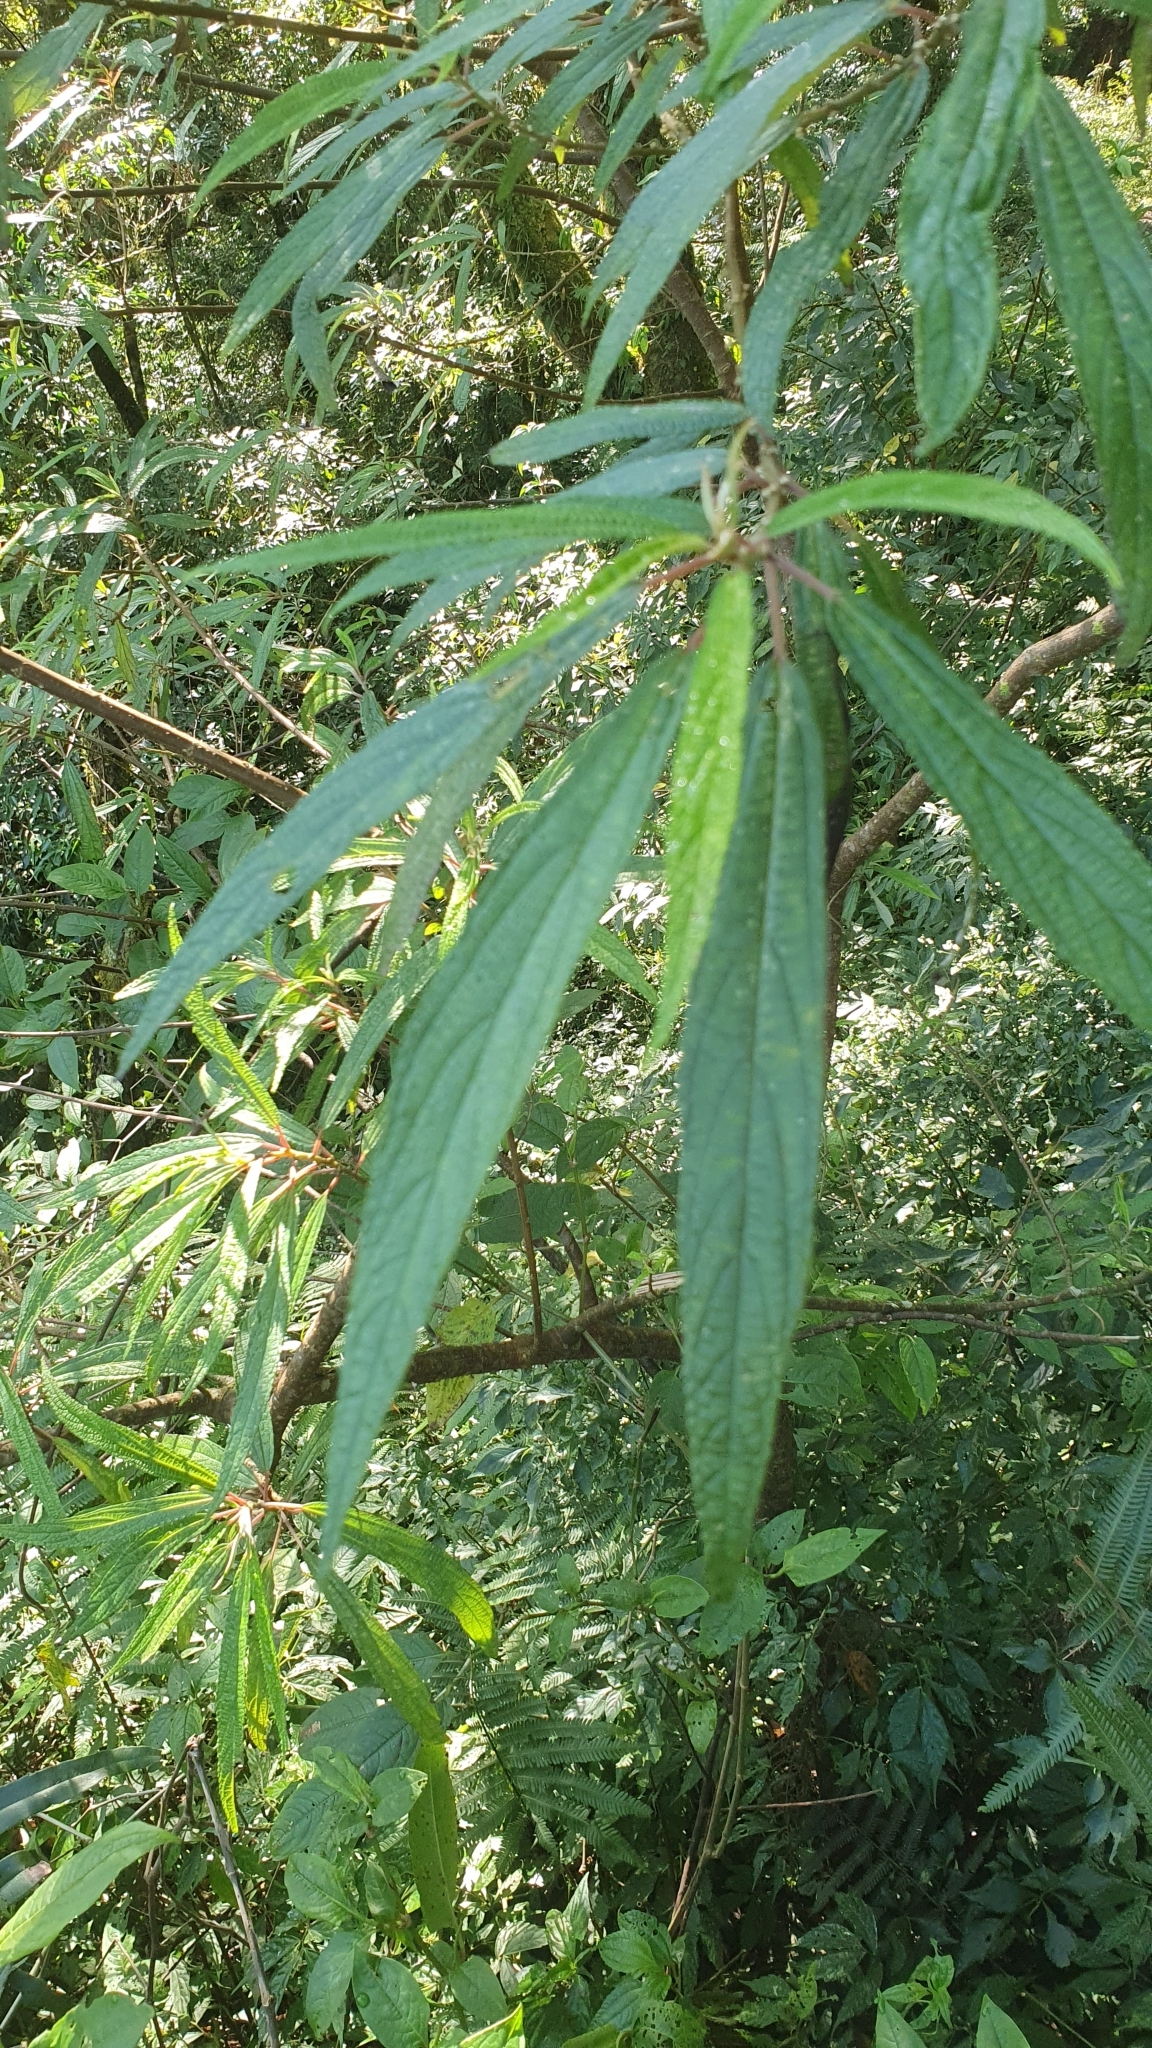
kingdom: Plantae
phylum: Tracheophyta
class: Magnoliopsida
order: Rosales
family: Urticaceae
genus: Debregeasia
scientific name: Debregeasia orientalis
